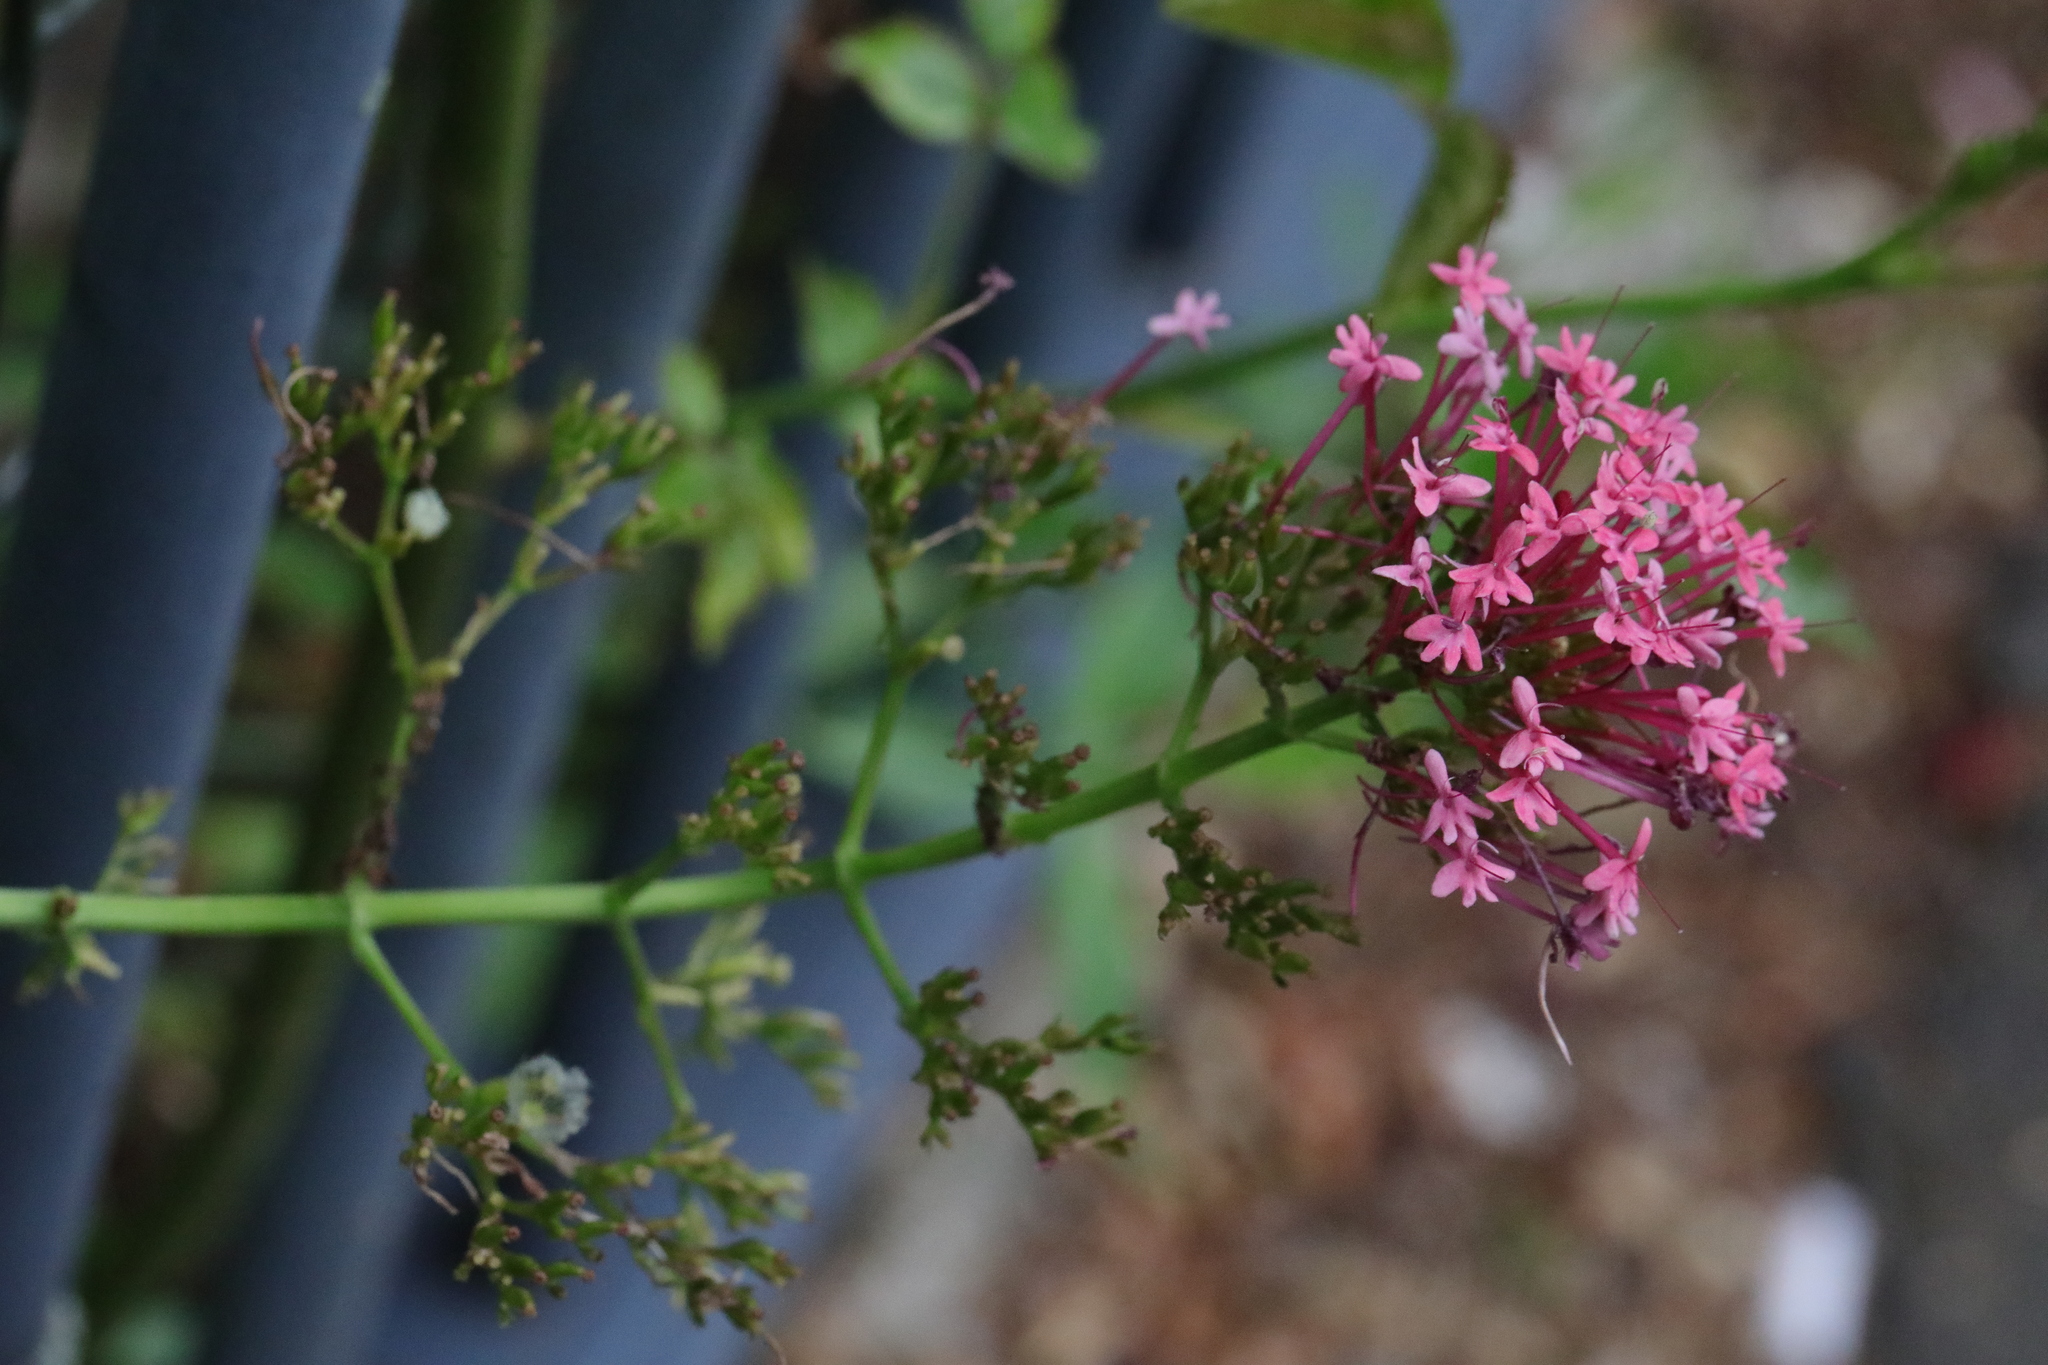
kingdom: Plantae
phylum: Tracheophyta
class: Magnoliopsida
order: Dipsacales
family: Caprifoliaceae
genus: Centranthus
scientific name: Centranthus ruber
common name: Red valerian
